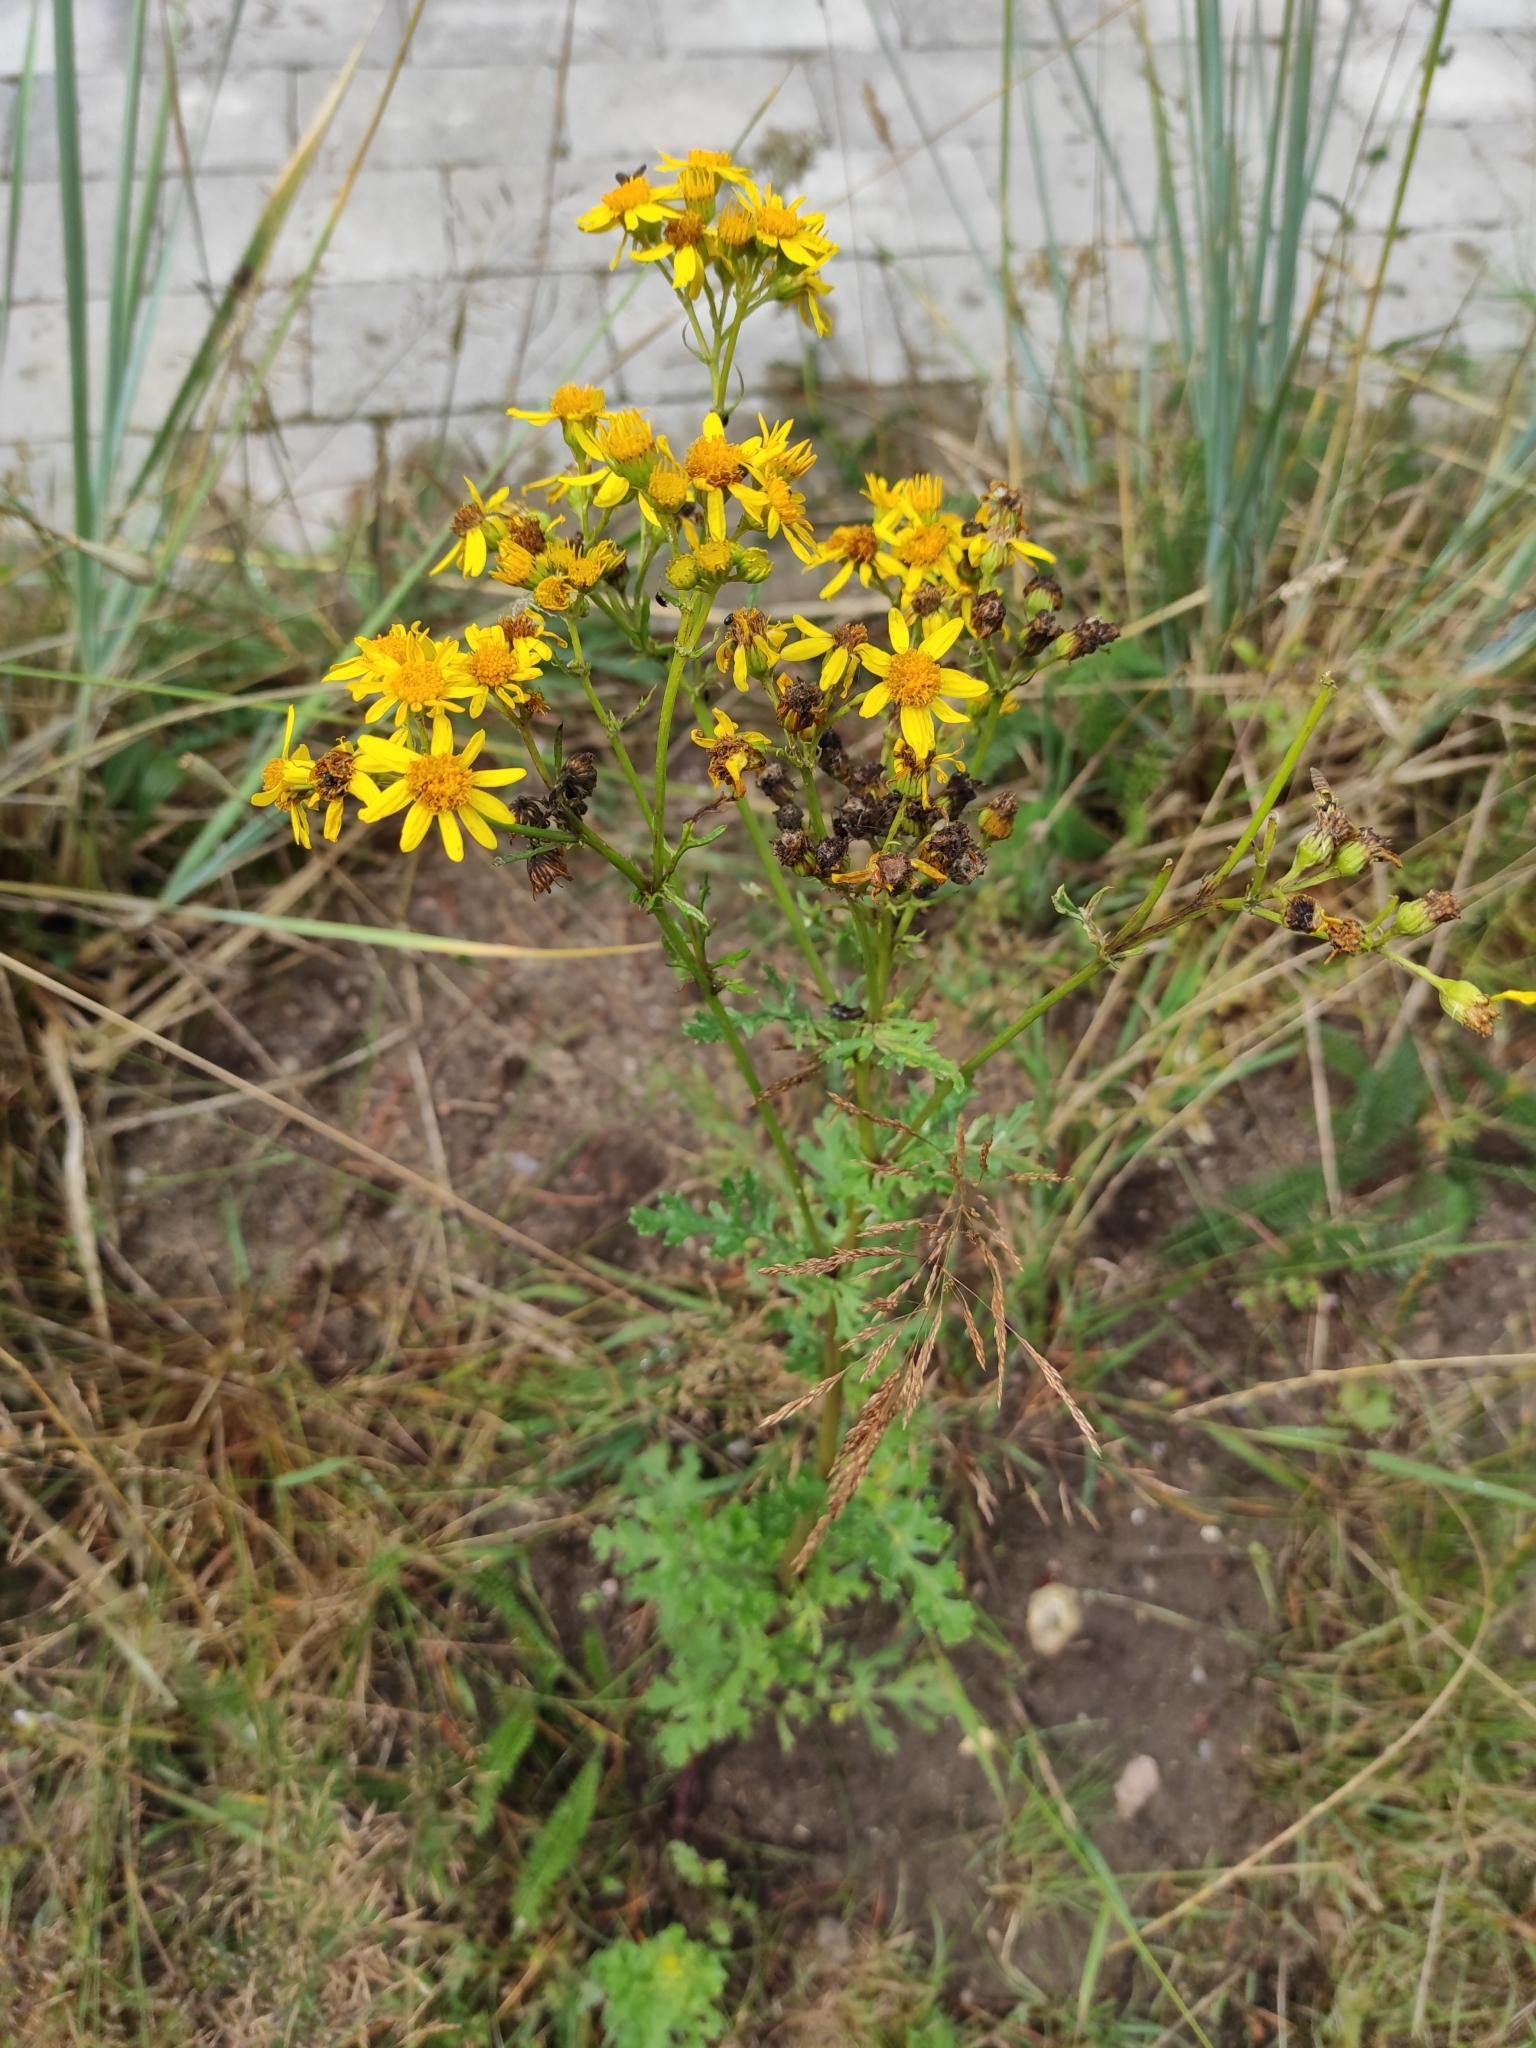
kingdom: Plantae
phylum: Tracheophyta
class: Magnoliopsida
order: Asterales
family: Asteraceae
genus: Jacobaea
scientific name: Jacobaea vulgaris
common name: Stinking willie
